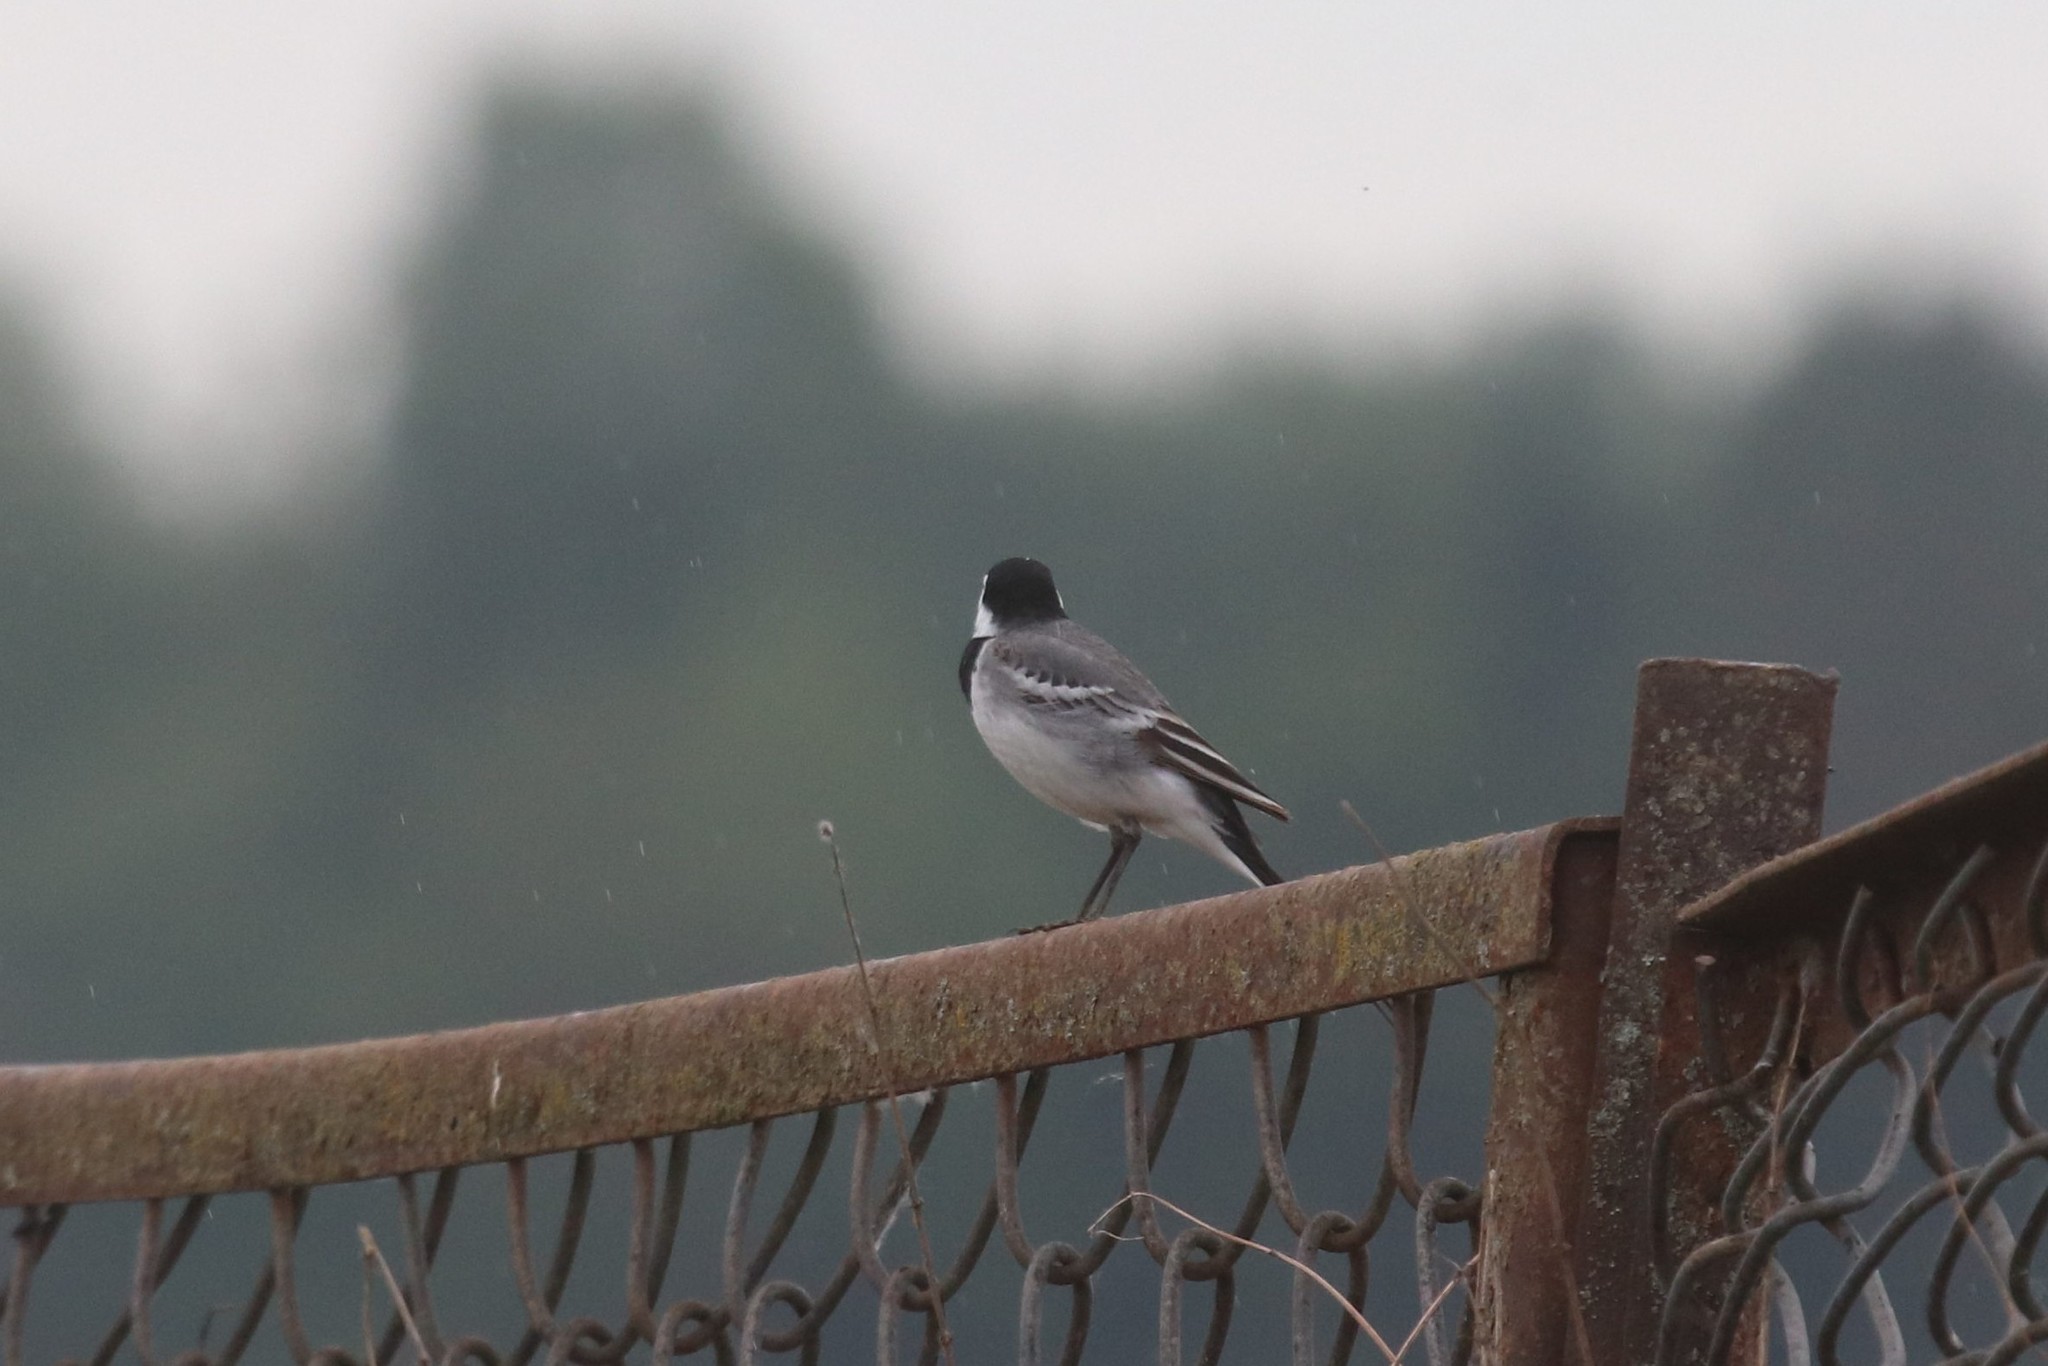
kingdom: Animalia
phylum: Chordata
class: Aves
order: Passeriformes
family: Motacillidae
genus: Motacilla
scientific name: Motacilla alba
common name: White wagtail
